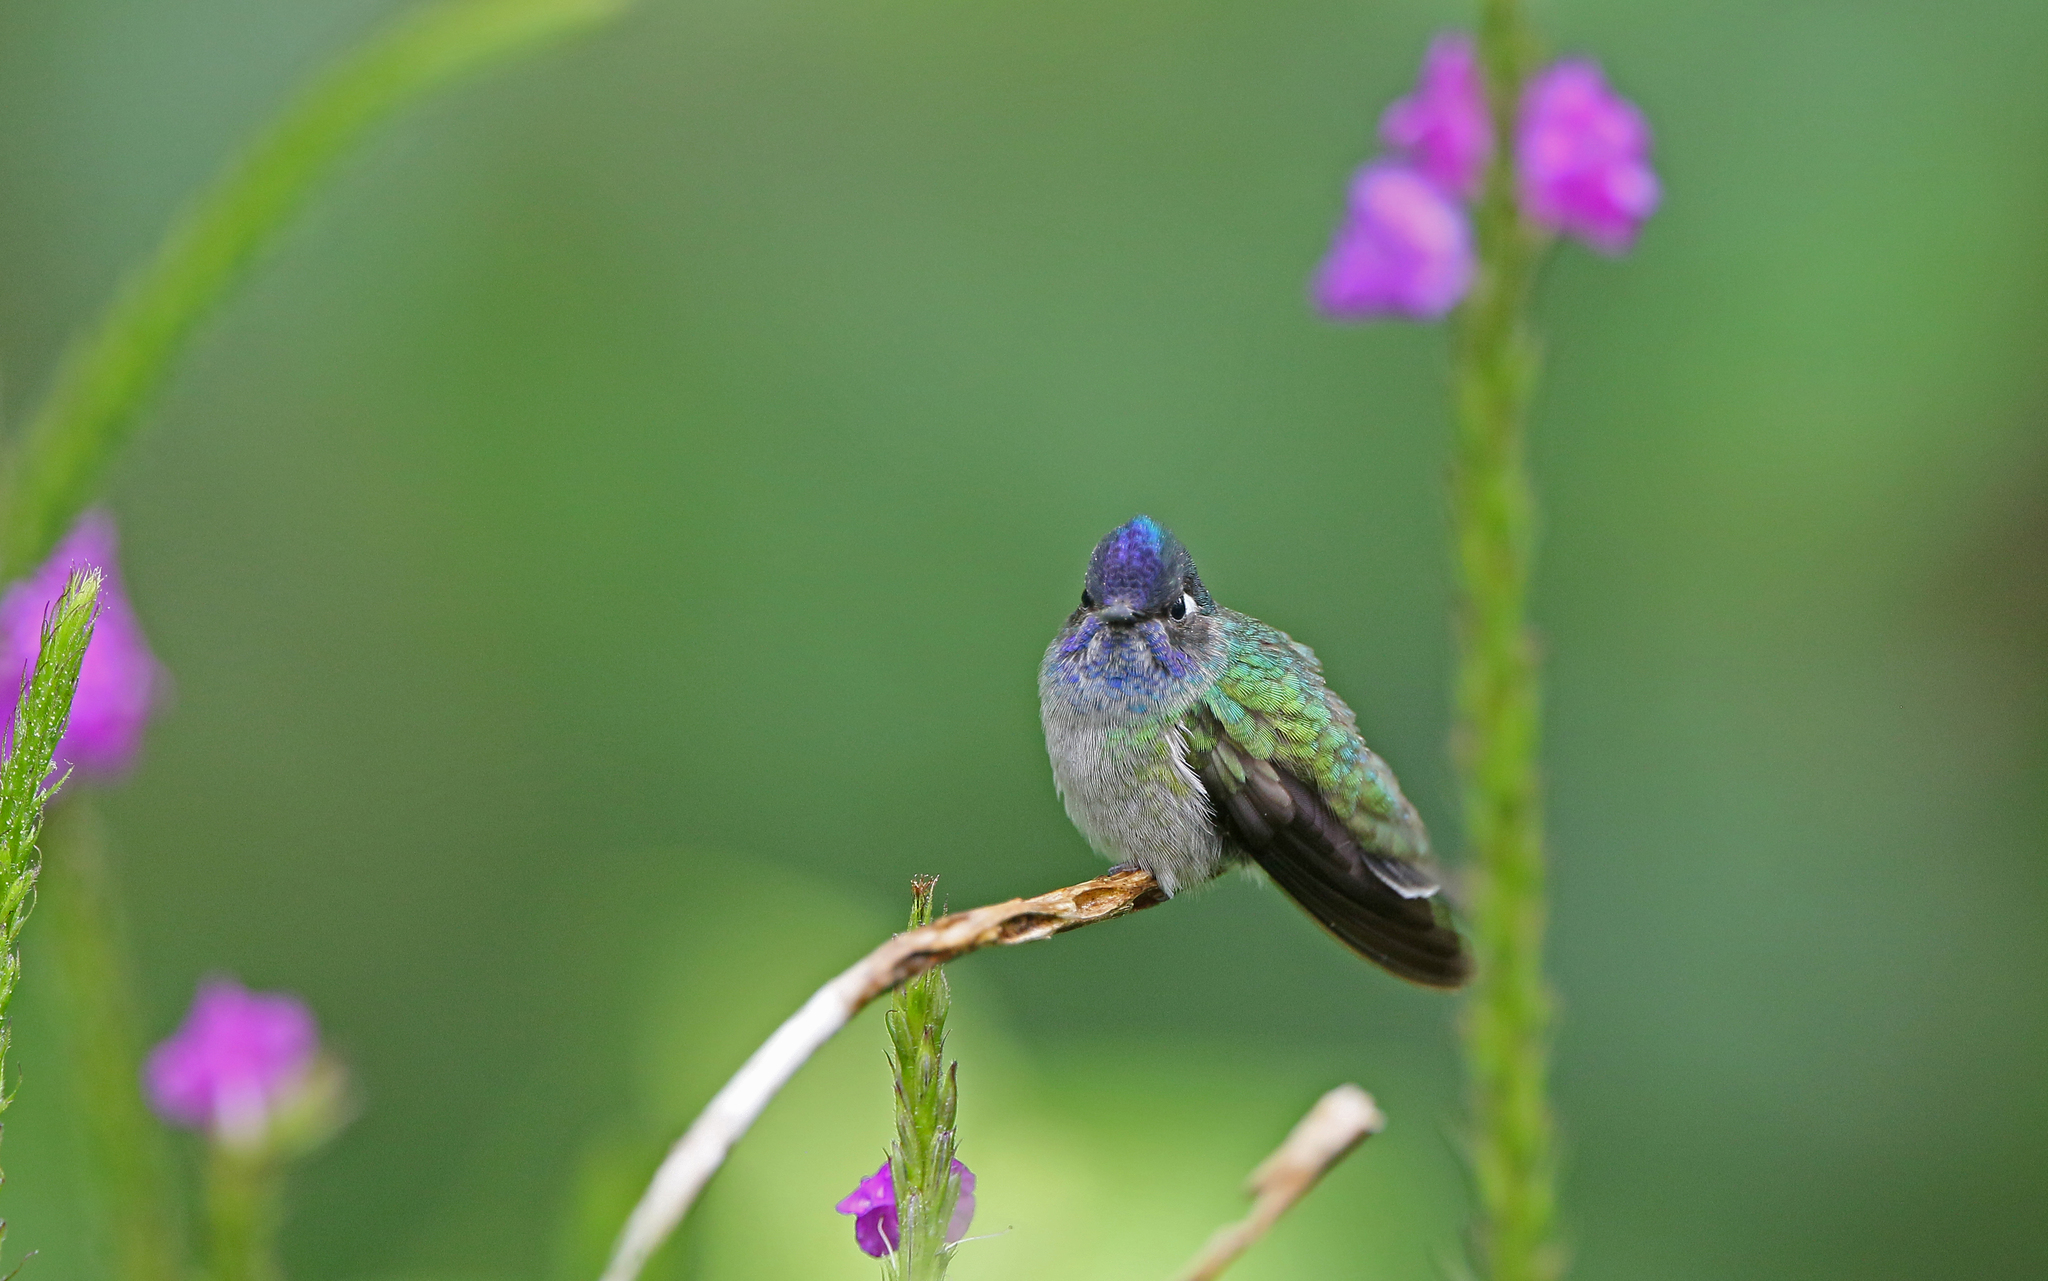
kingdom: Animalia
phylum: Chordata
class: Aves
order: Apodiformes
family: Trochilidae
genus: Klais
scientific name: Klais guimeti
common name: Violet-headed hummingbird
